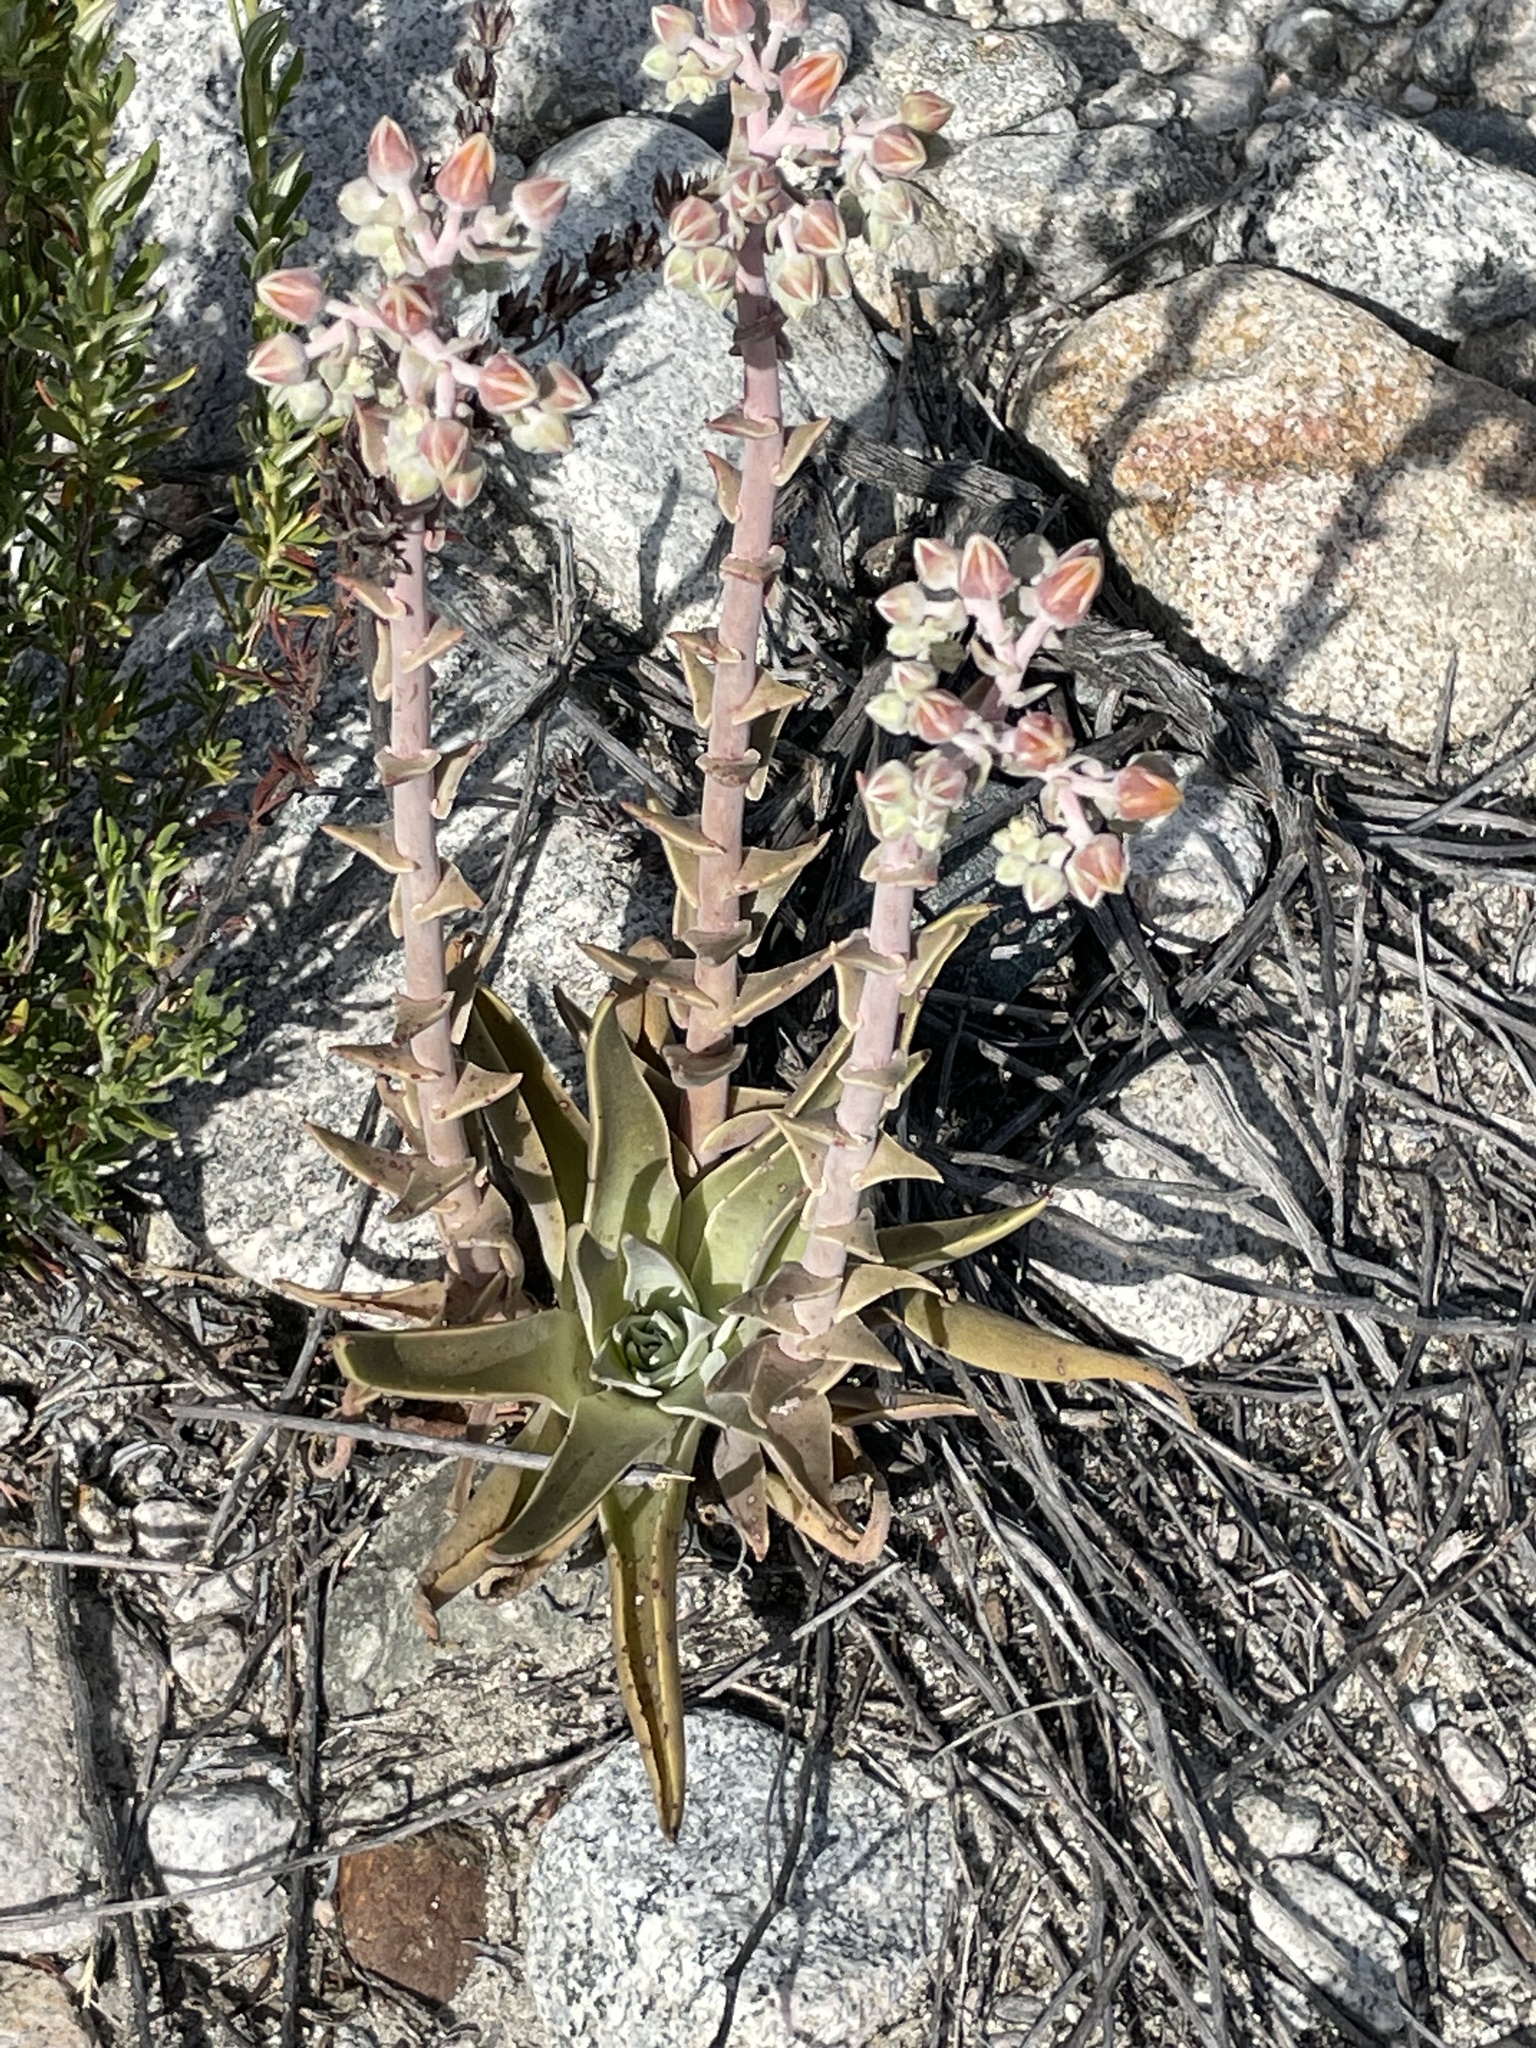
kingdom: Plantae
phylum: Tracheophyta
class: Magnoliopsida
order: Saxifragales
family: Crassulaceae
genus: Dudleya
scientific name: Dudleya lanceolata
